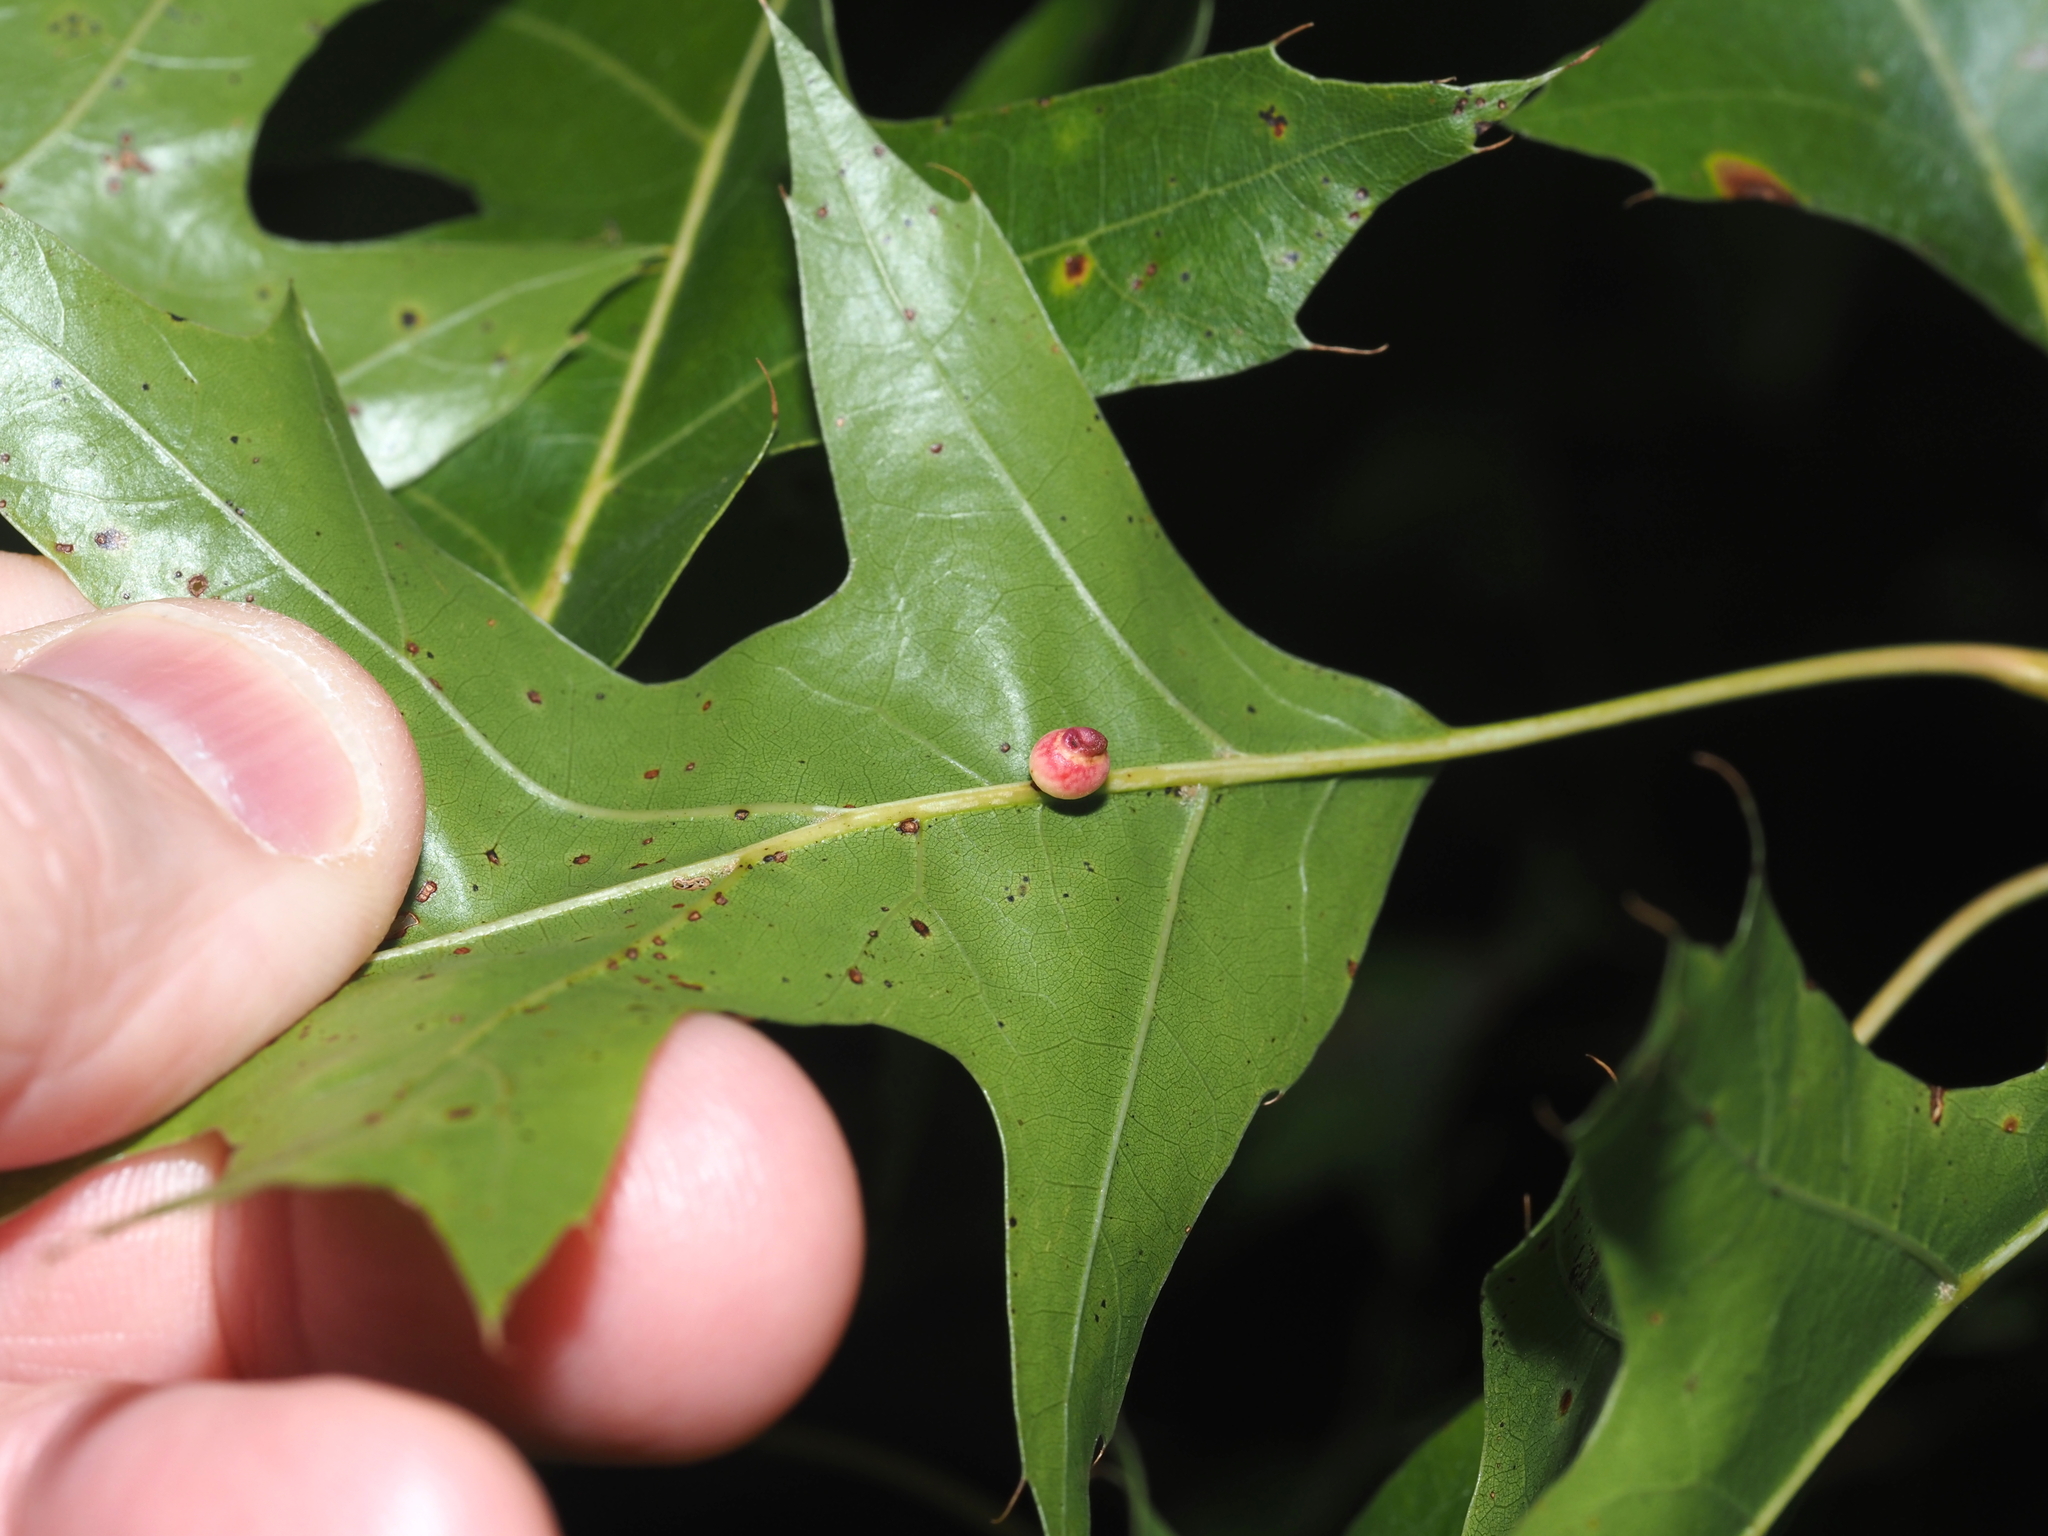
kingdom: Animalia
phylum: Arthropoda
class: Insecta
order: Hymenoptera
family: Cynipidae
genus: Kokkocynips
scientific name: Kokkocynips rileyi
